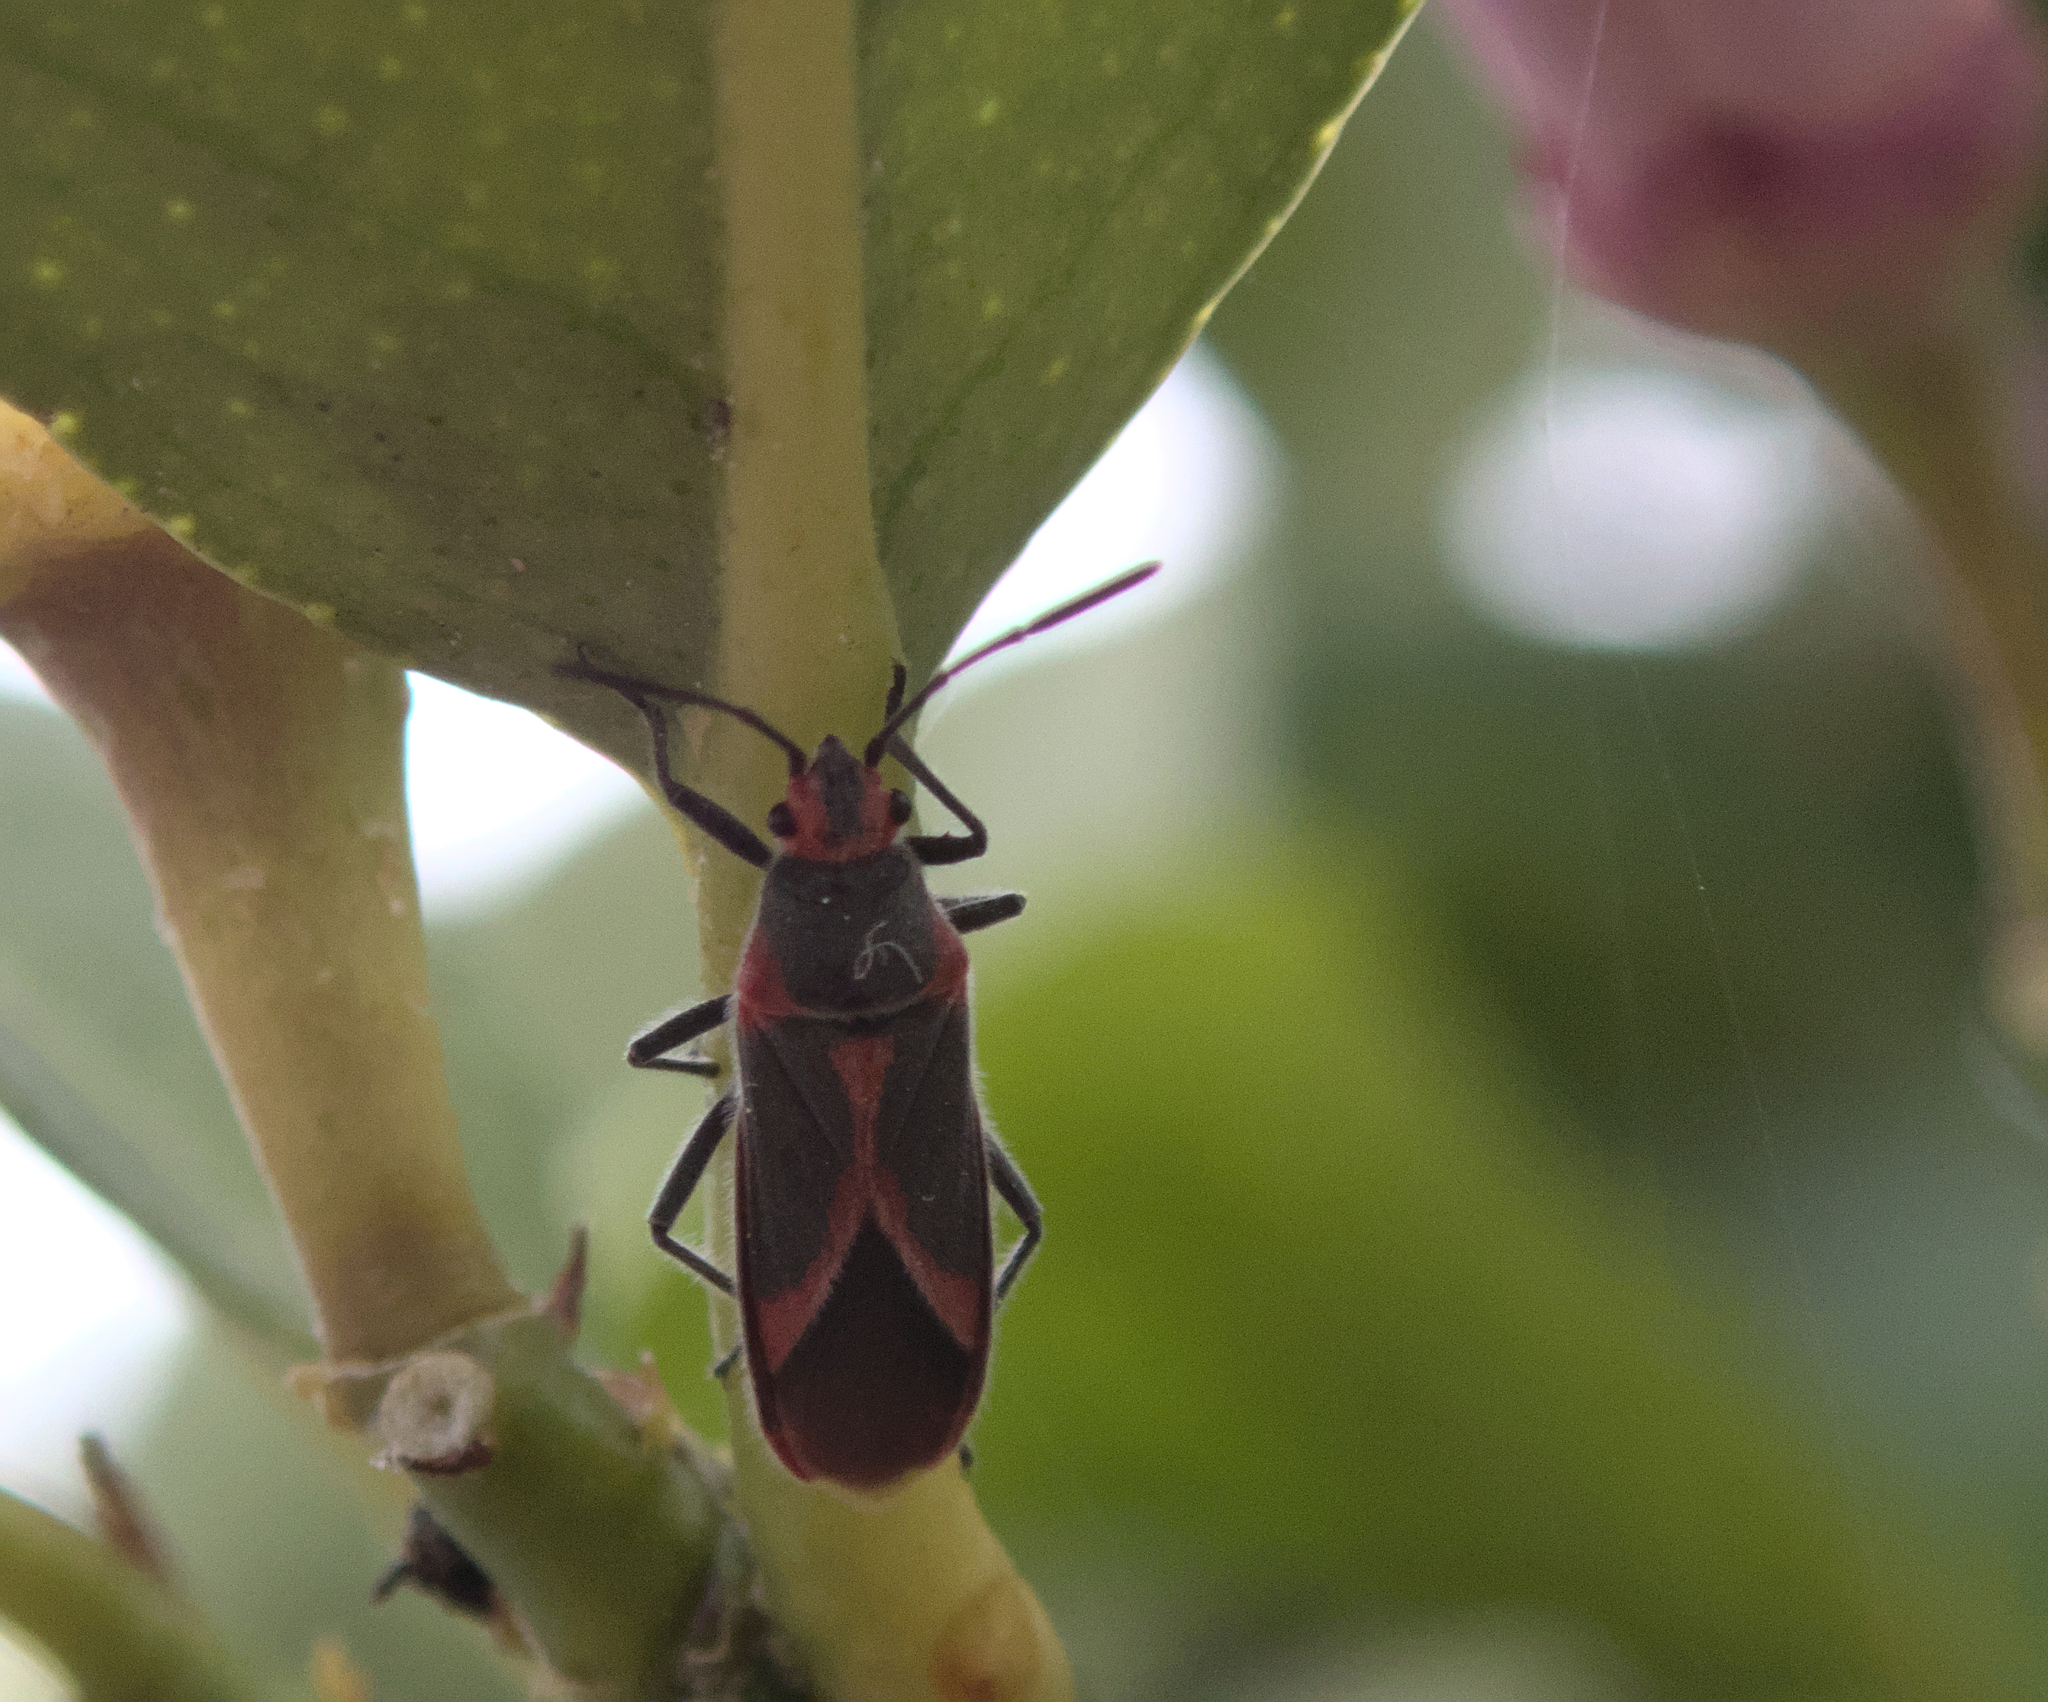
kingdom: Animalia
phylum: Arthropoda
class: Insecta
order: Hemiptera
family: Lygaeidae
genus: Caenocoris
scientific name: Caenocoris nerii
